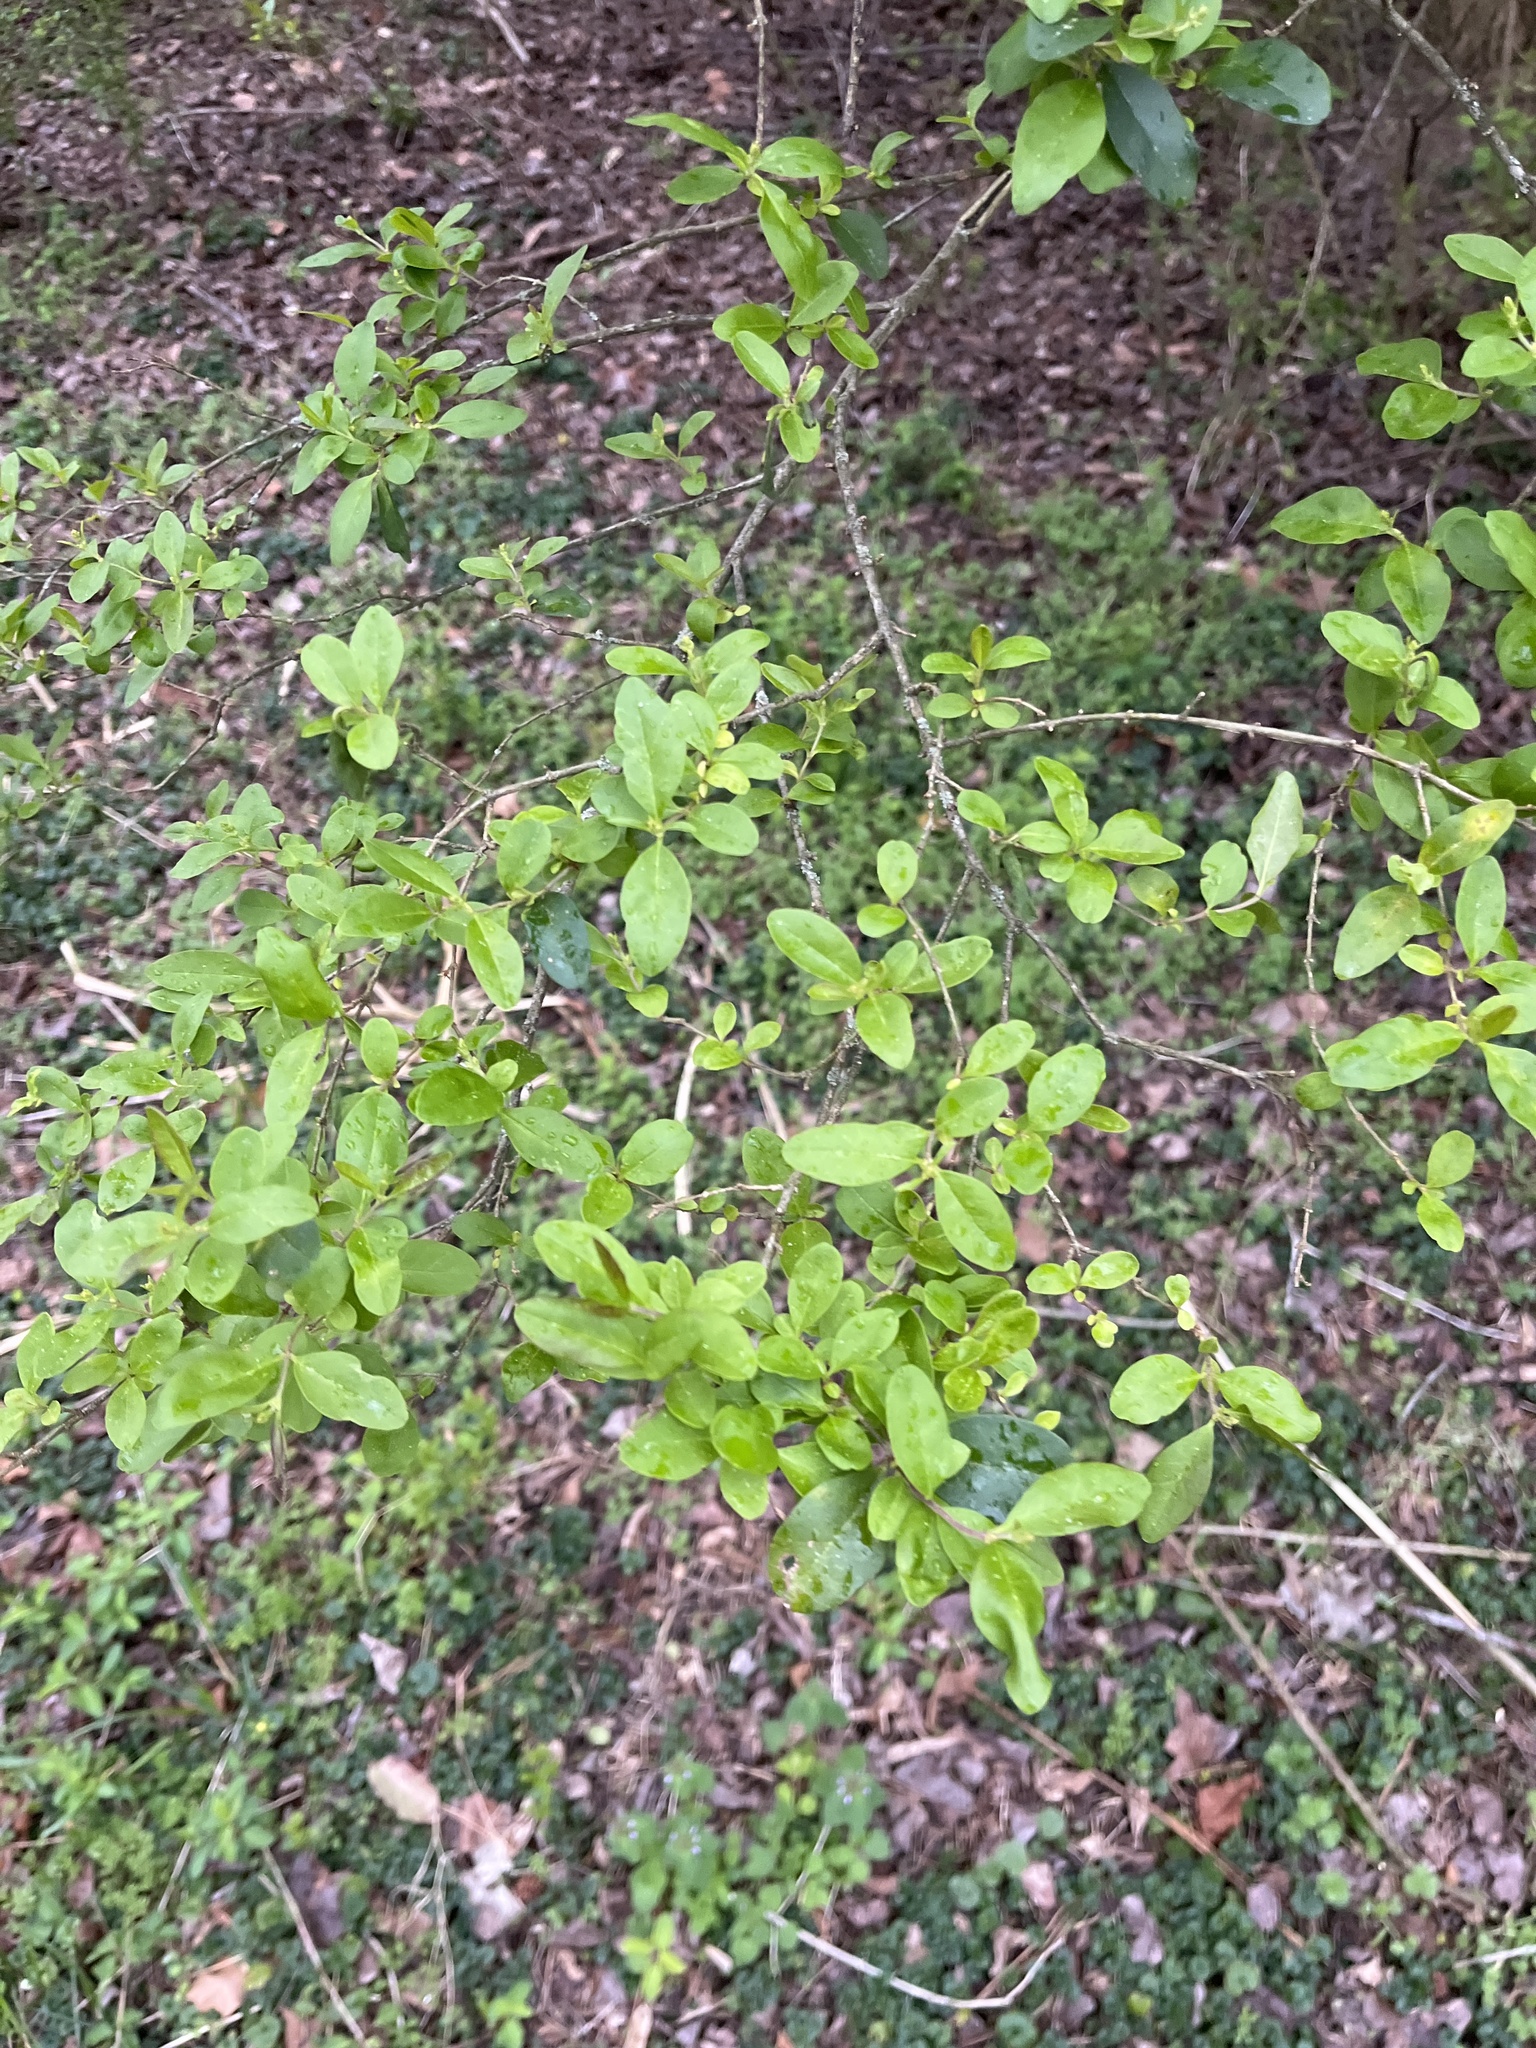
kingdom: Plantae
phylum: Tracheophyta
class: Magnoliopsida
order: Lamiales
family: Oleaceae
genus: Ligustrum
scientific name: Ligustrum sinense
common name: Chinese privet
